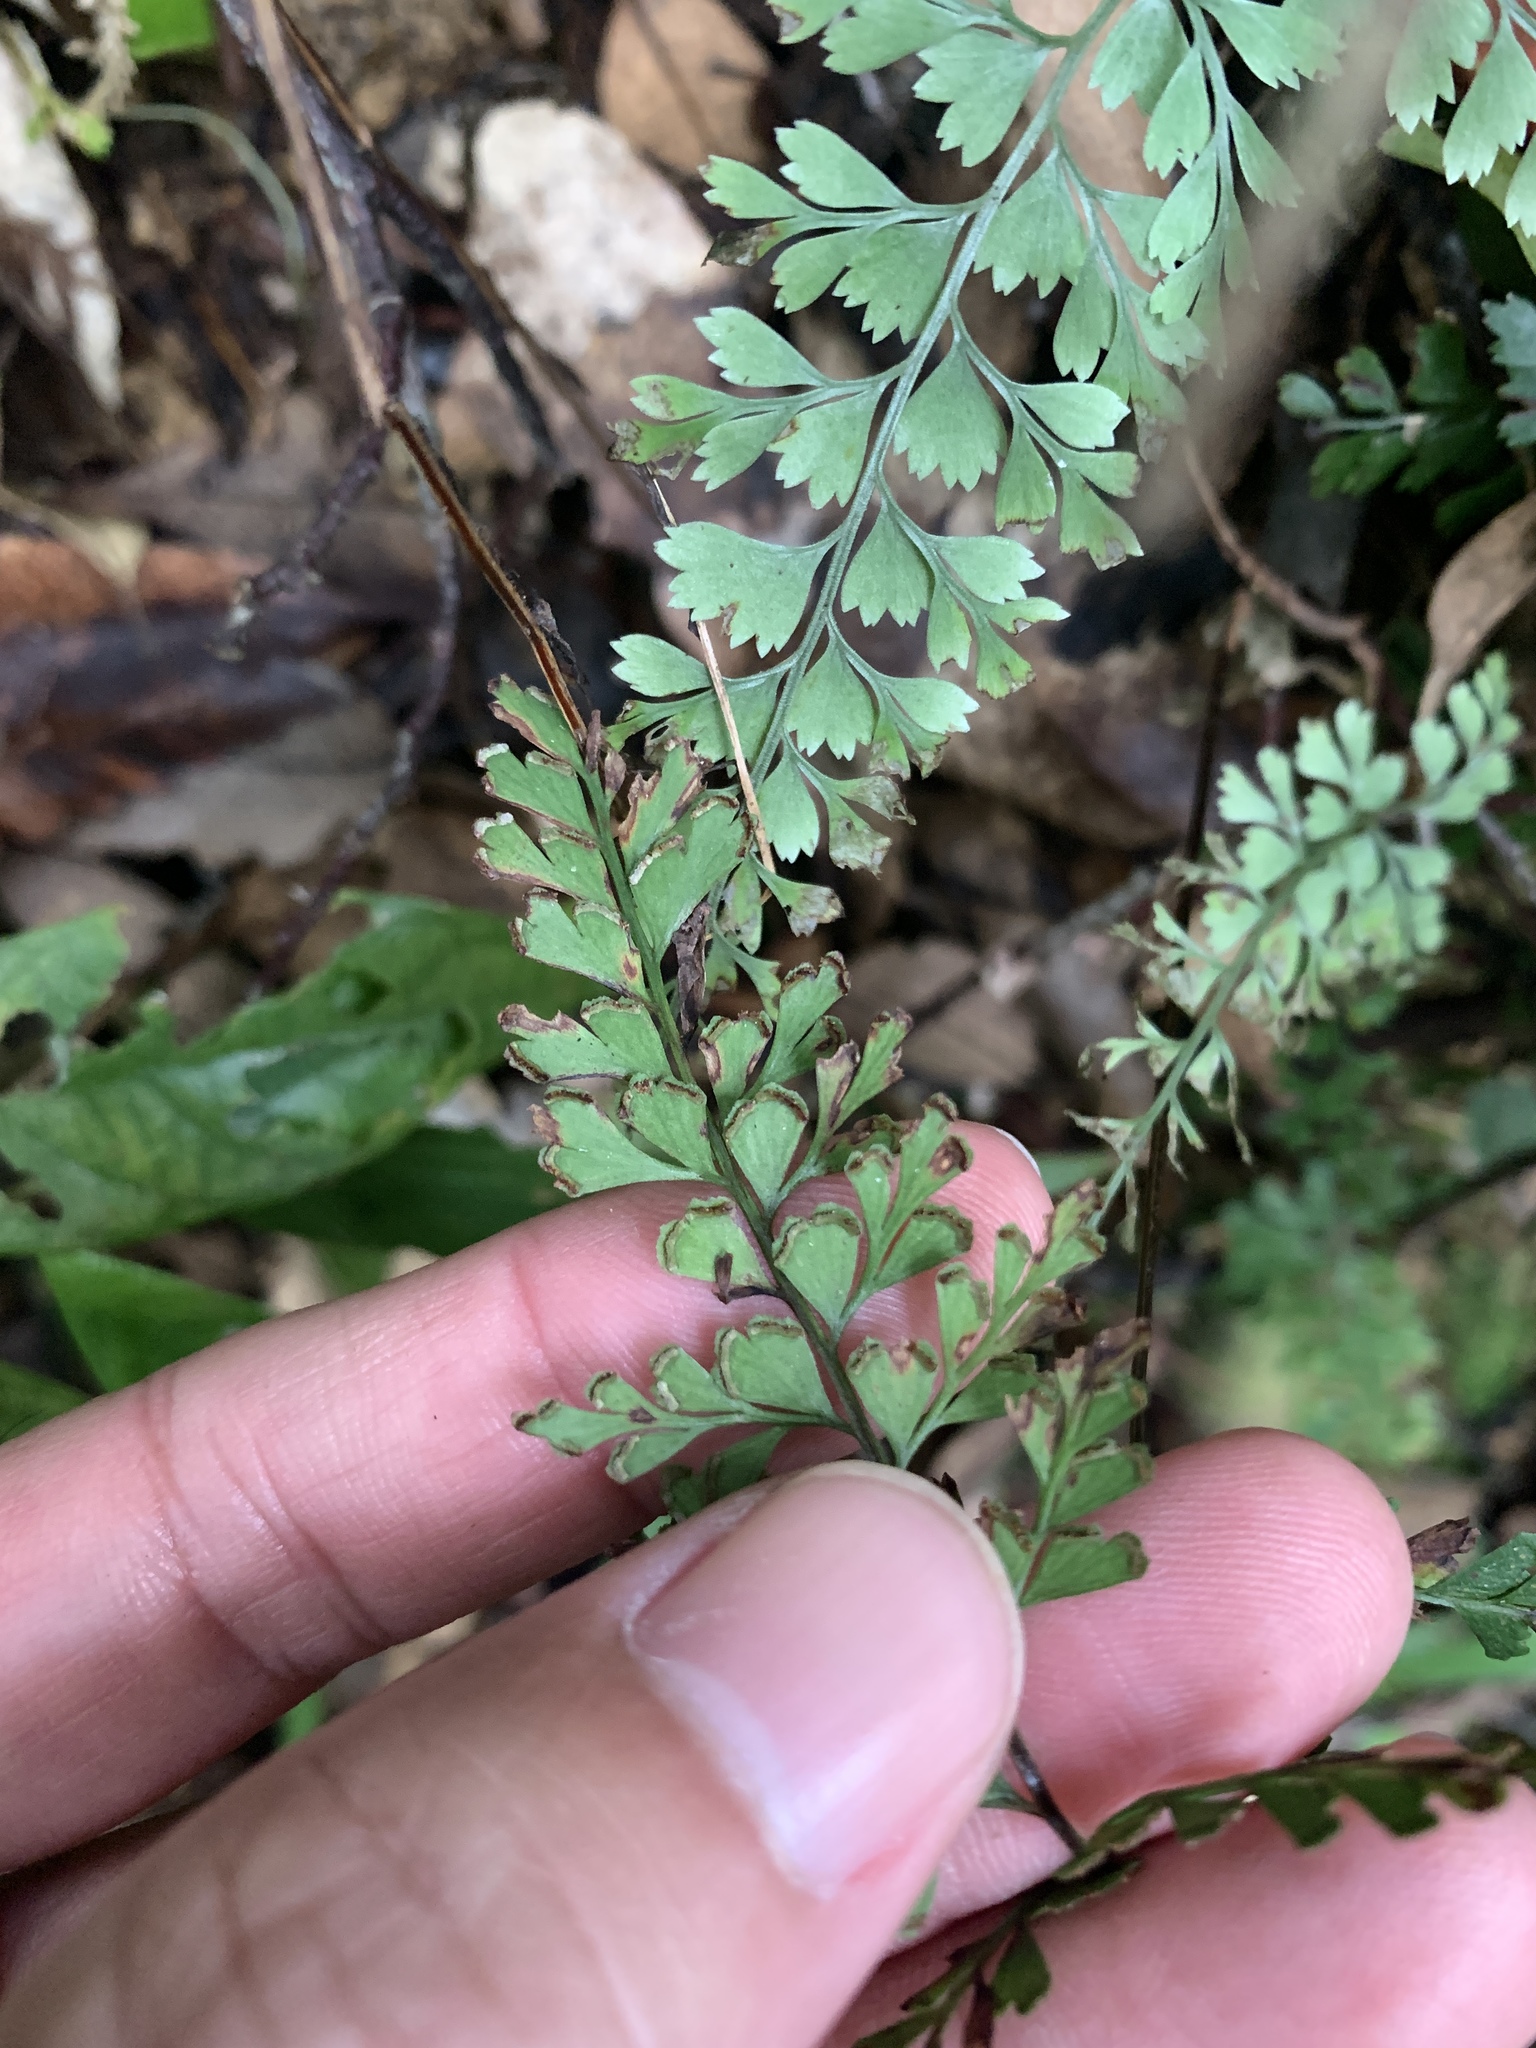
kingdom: Plantae
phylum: Tracheophyta
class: Polypodiopsida
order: Polypodiales
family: Lindsaeaceae
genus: Lindsaea
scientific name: Lindsaea chienii
